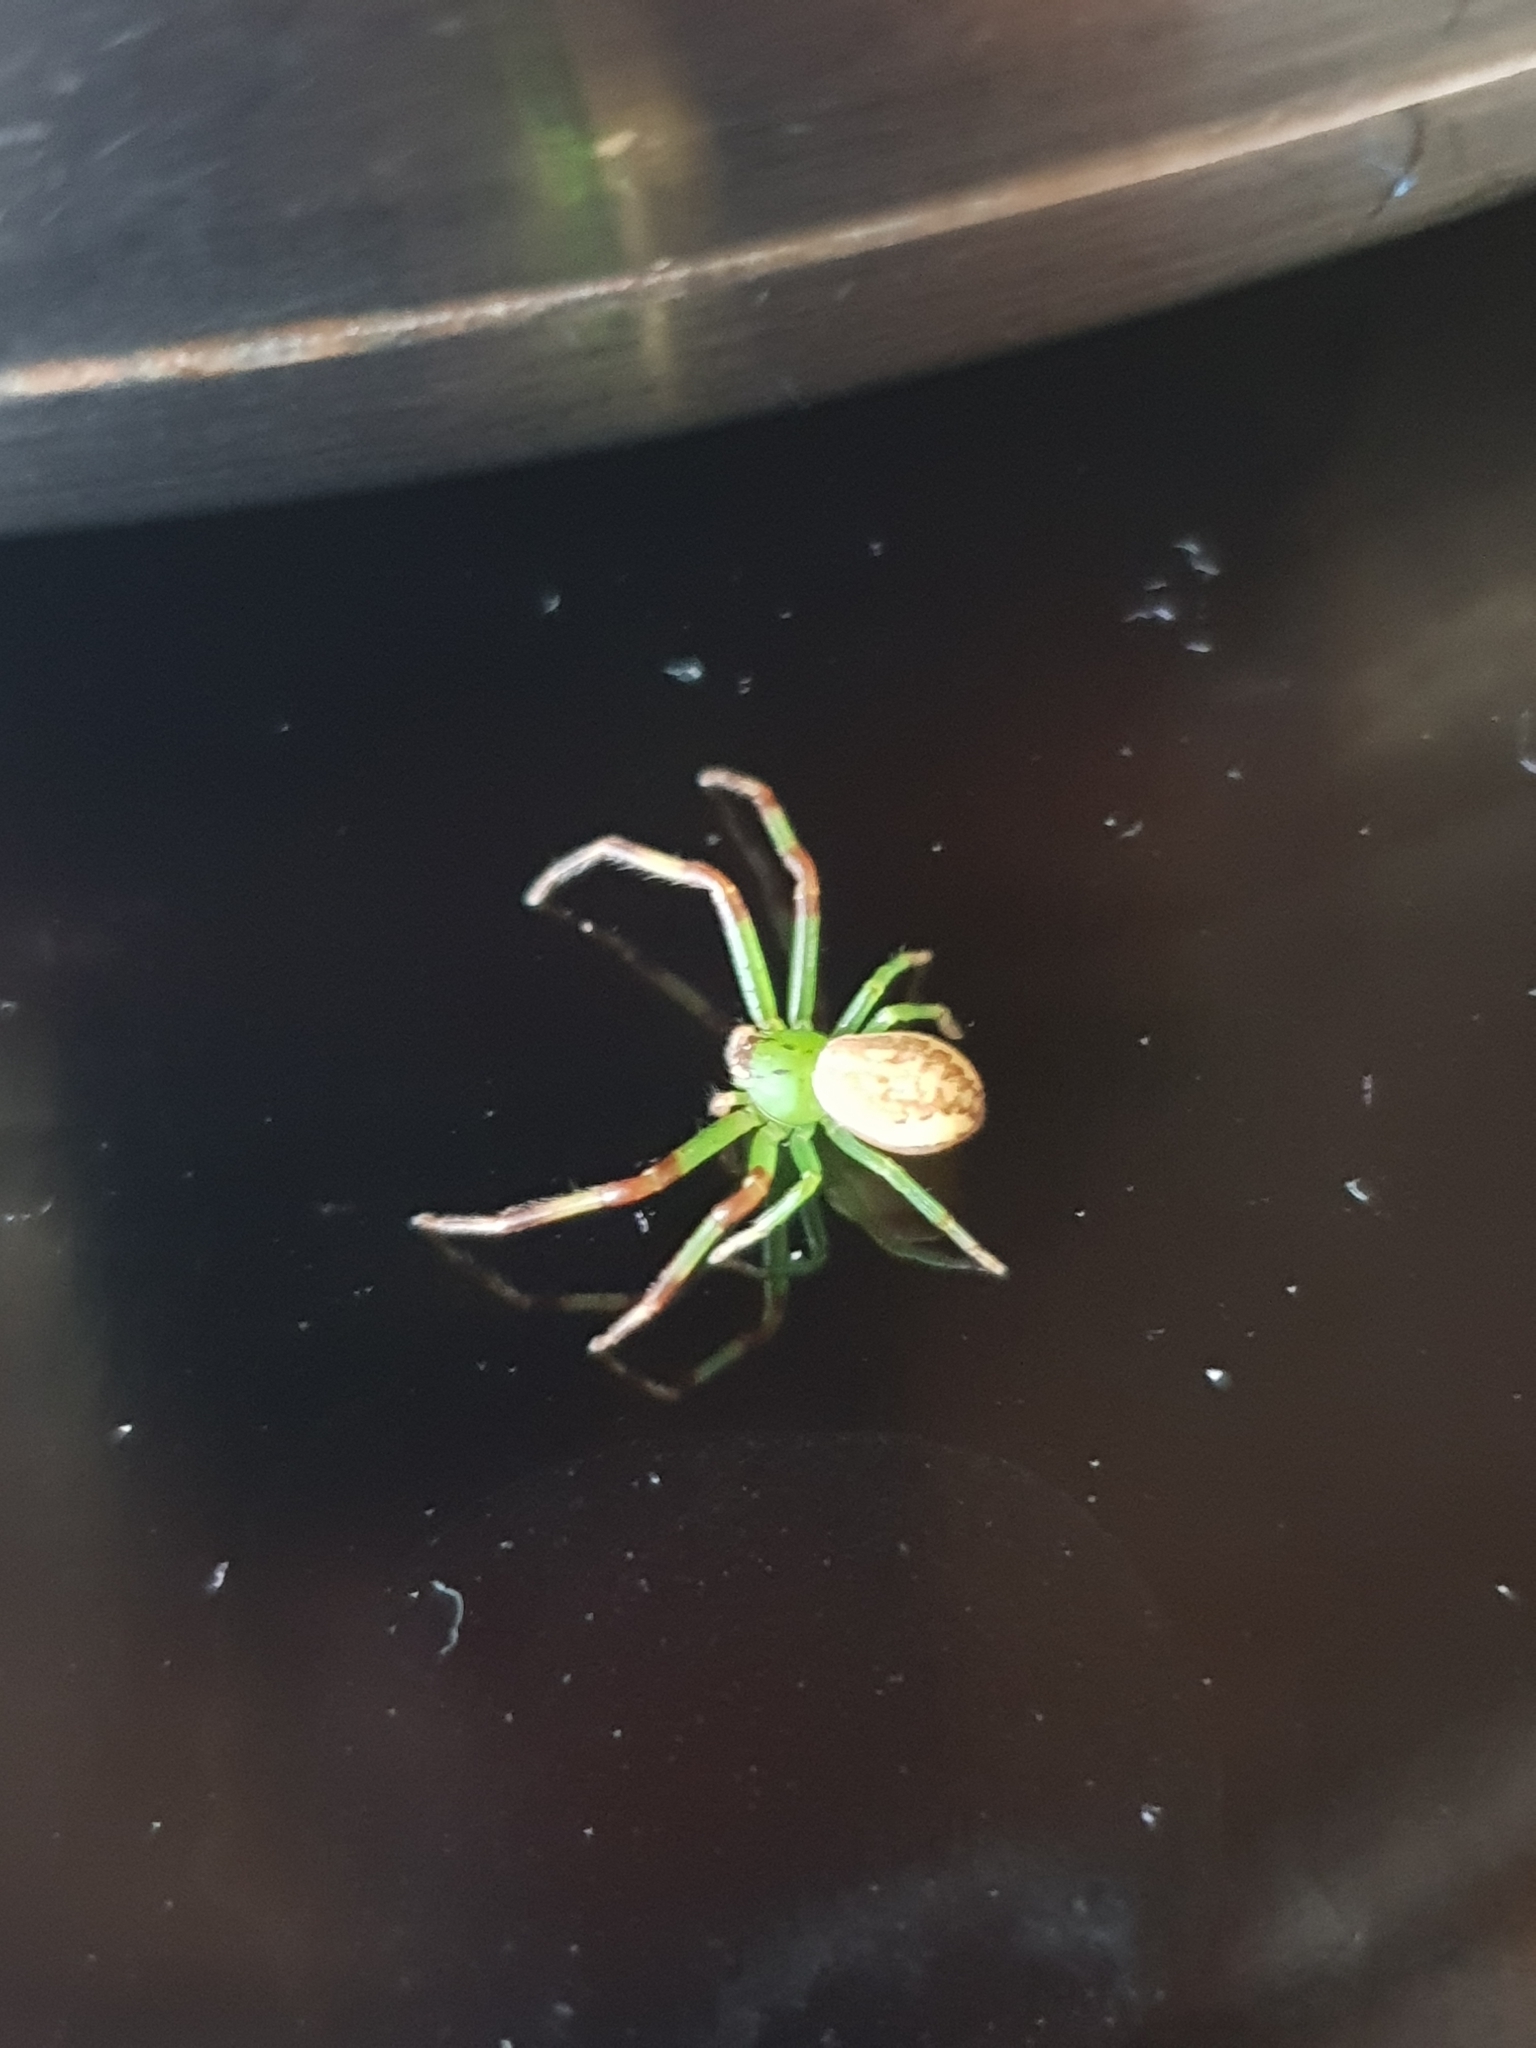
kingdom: Animalia
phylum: Arthropoda
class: Arachnida
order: Araneae
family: Thomisidae
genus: Diaea
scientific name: Diaea dorsata
